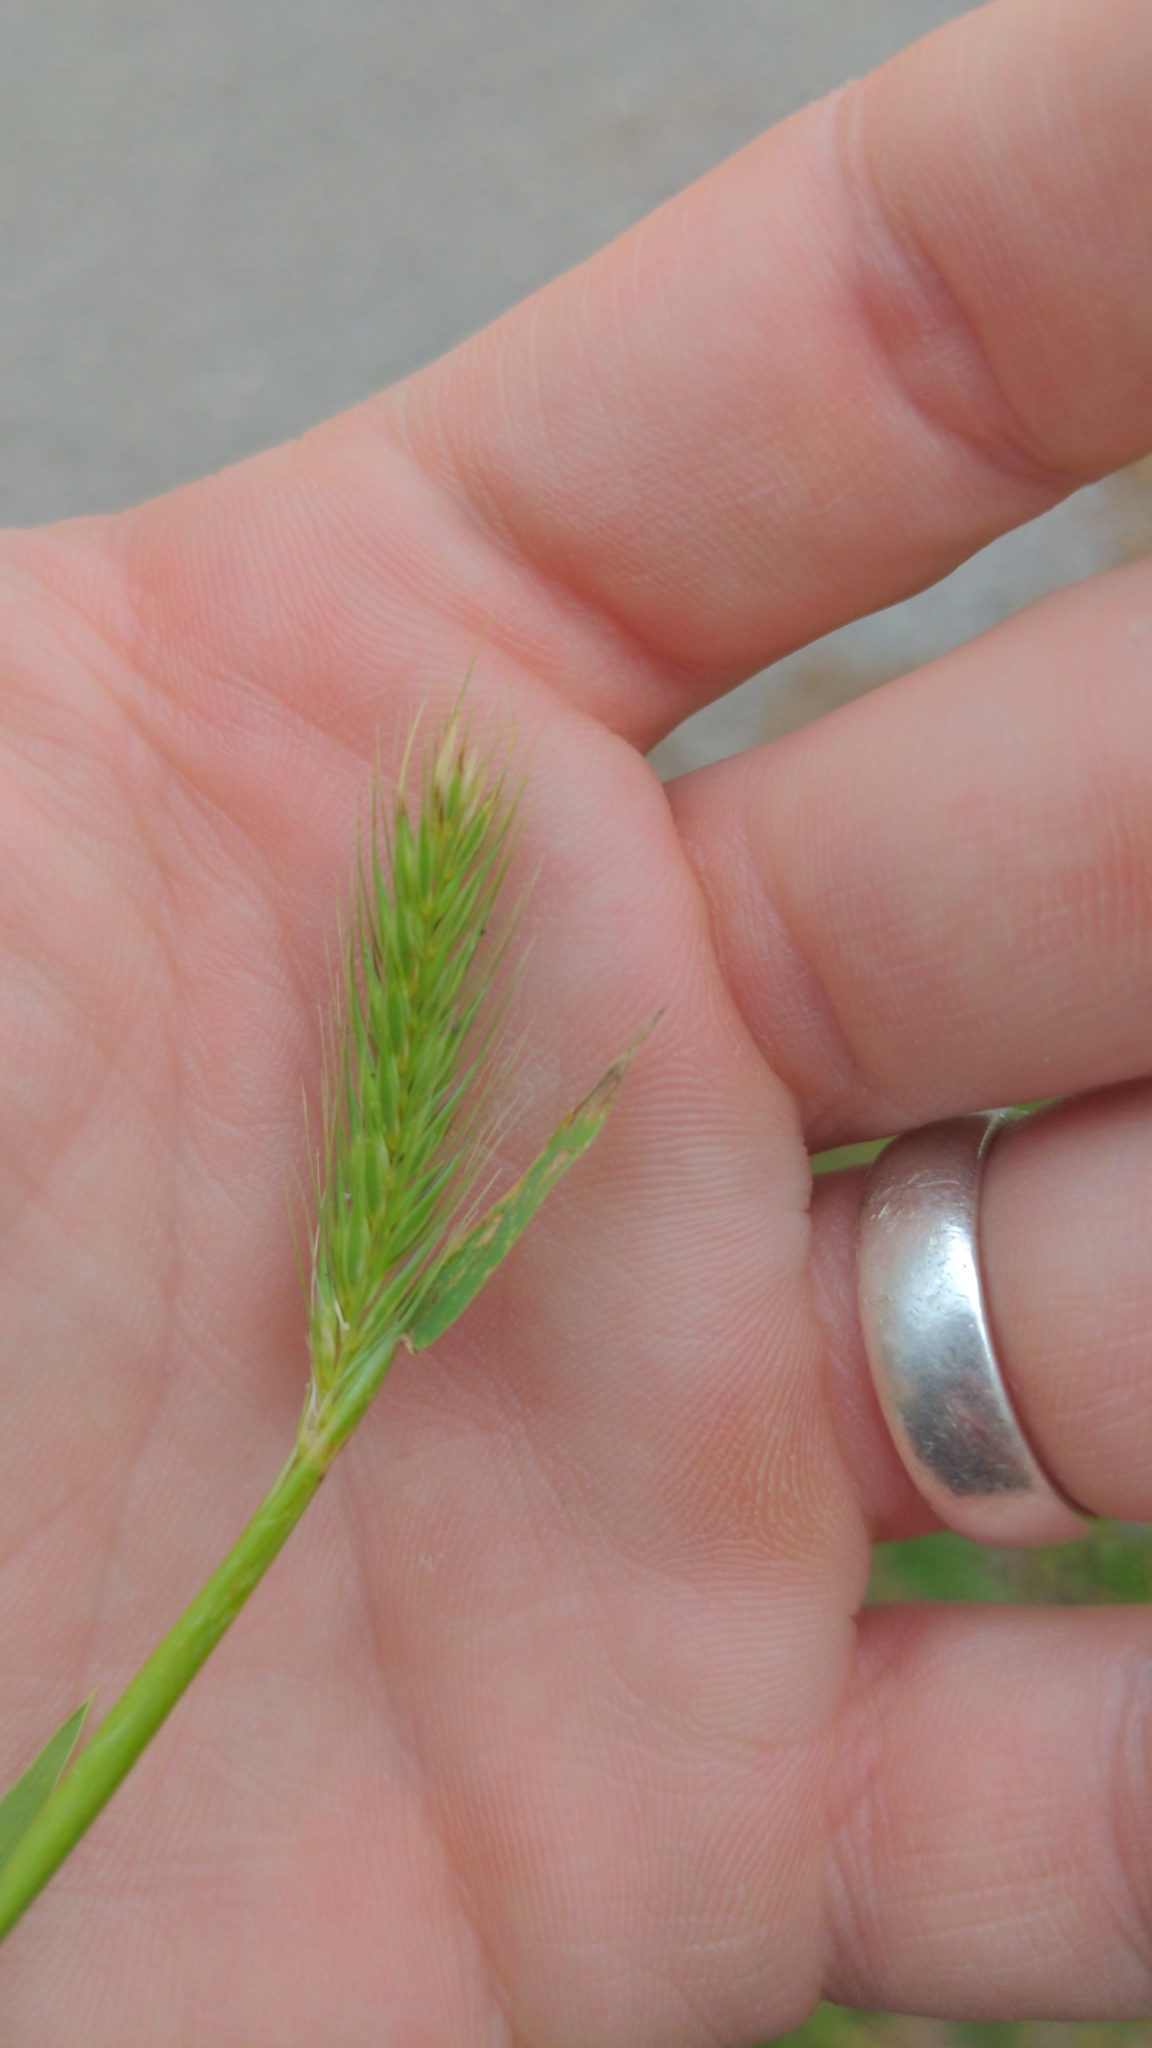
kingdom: Plantae
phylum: Tracheophyta
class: Liliopsida
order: Poales
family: Poaceae
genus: Hordeum
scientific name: Hordeum pusillum
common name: Little barley
